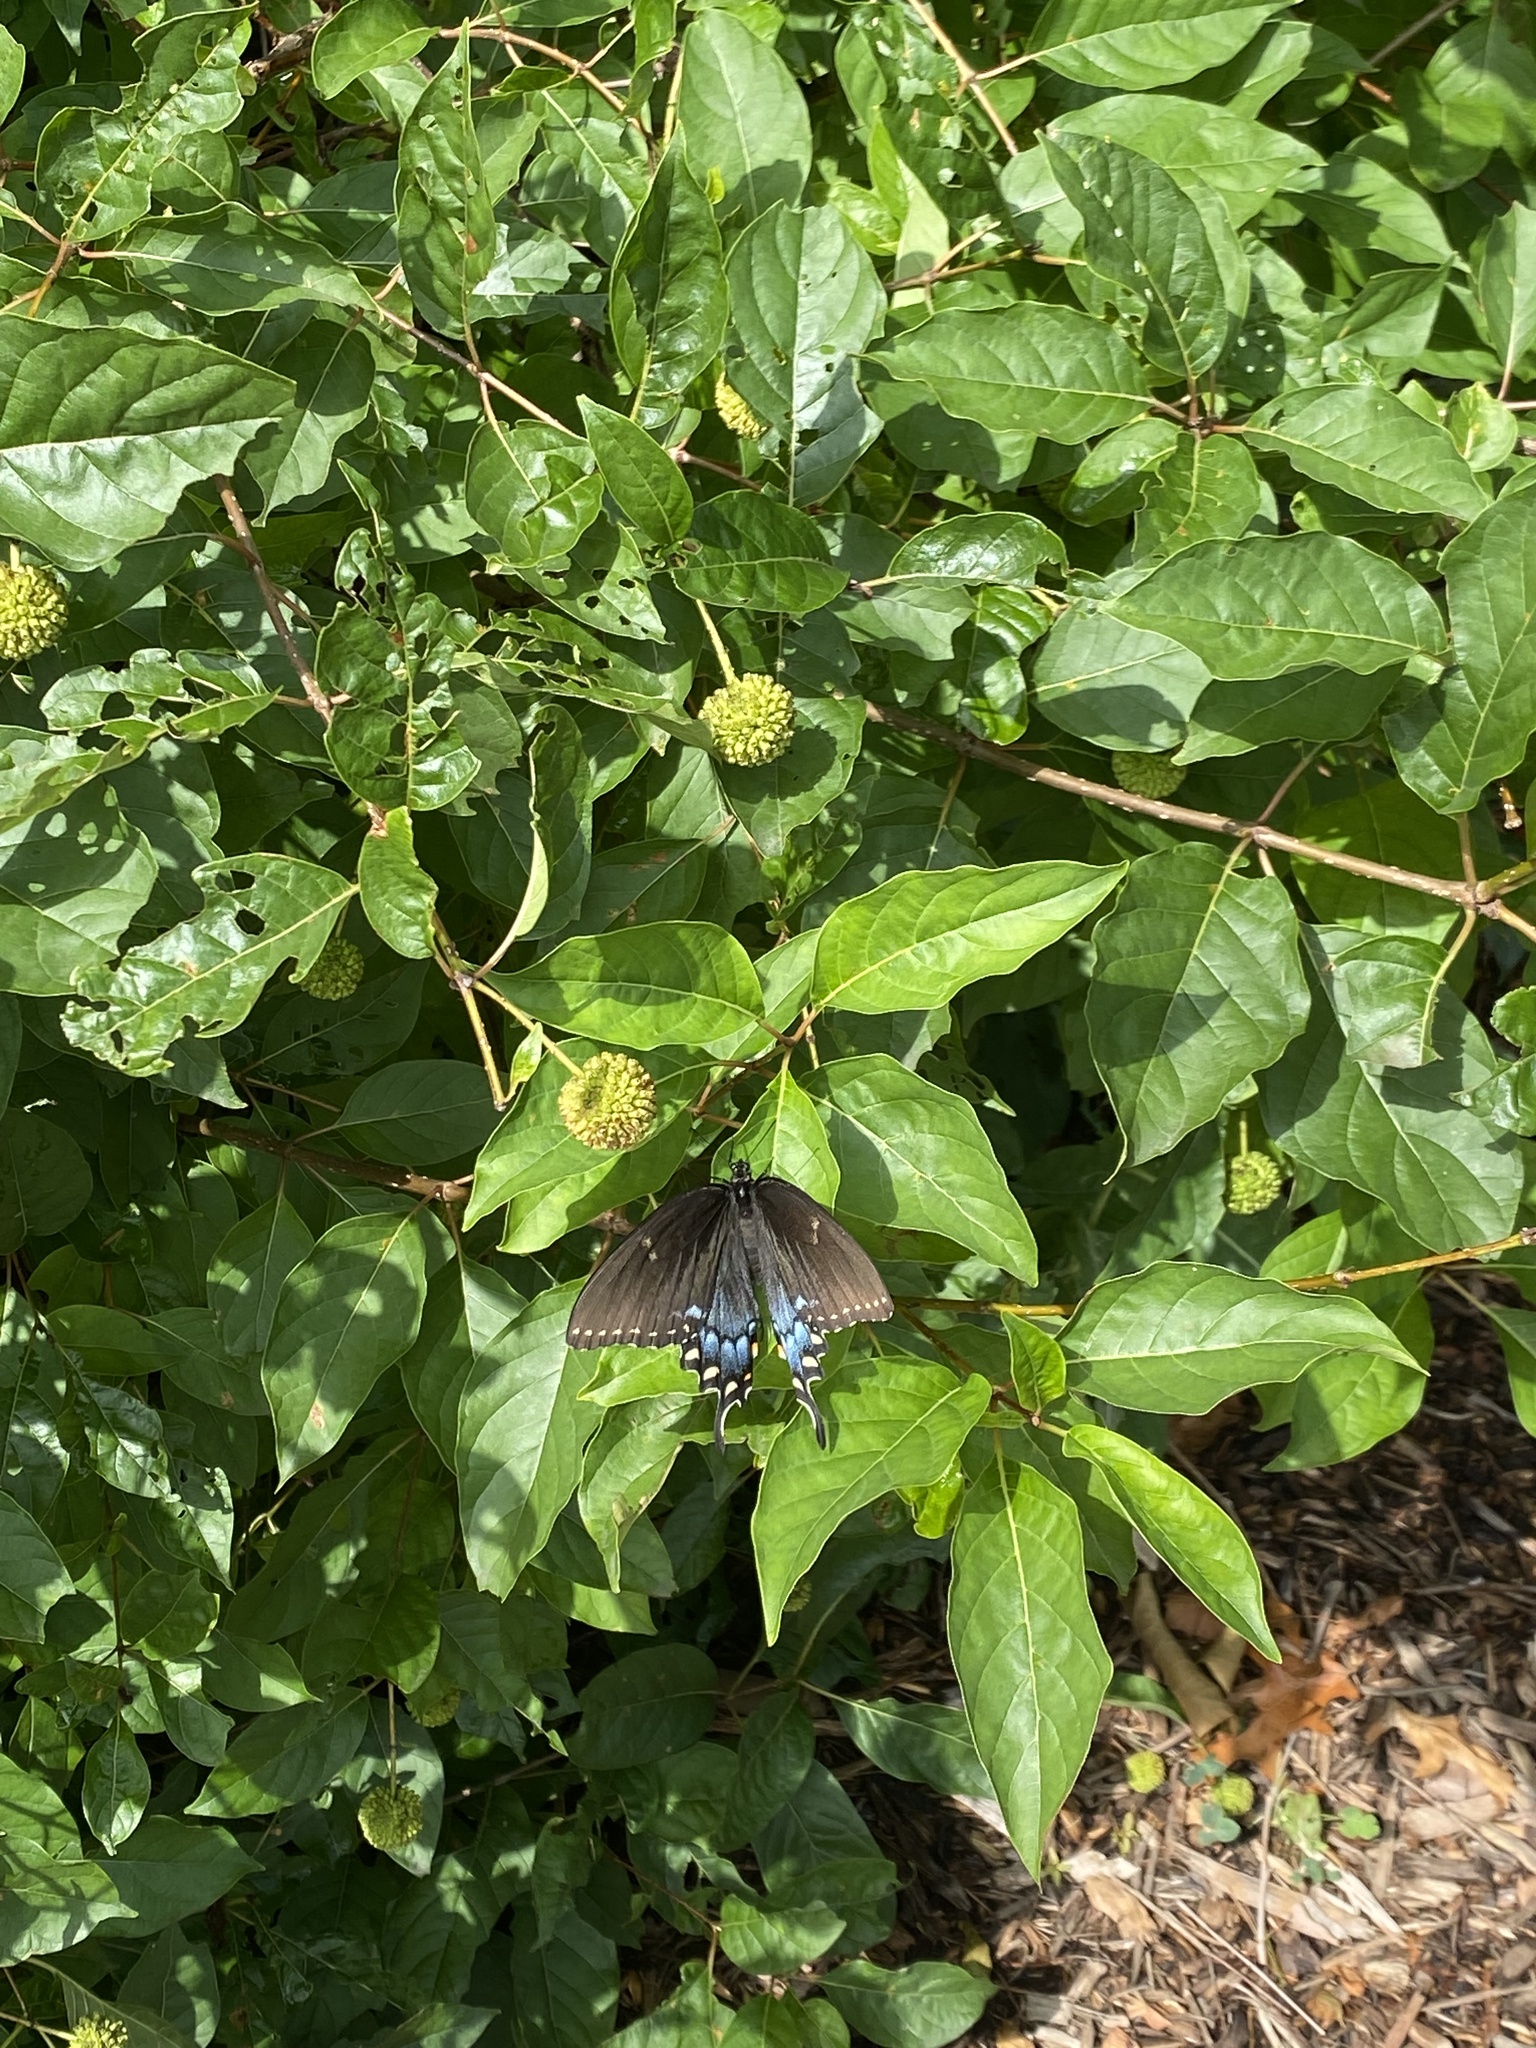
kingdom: Animalia
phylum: Arthropoda
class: Insecta
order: Lepidoptera
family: Papilionidae
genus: Papilio
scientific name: Papilio glaucus
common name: Tiger swallowtail
